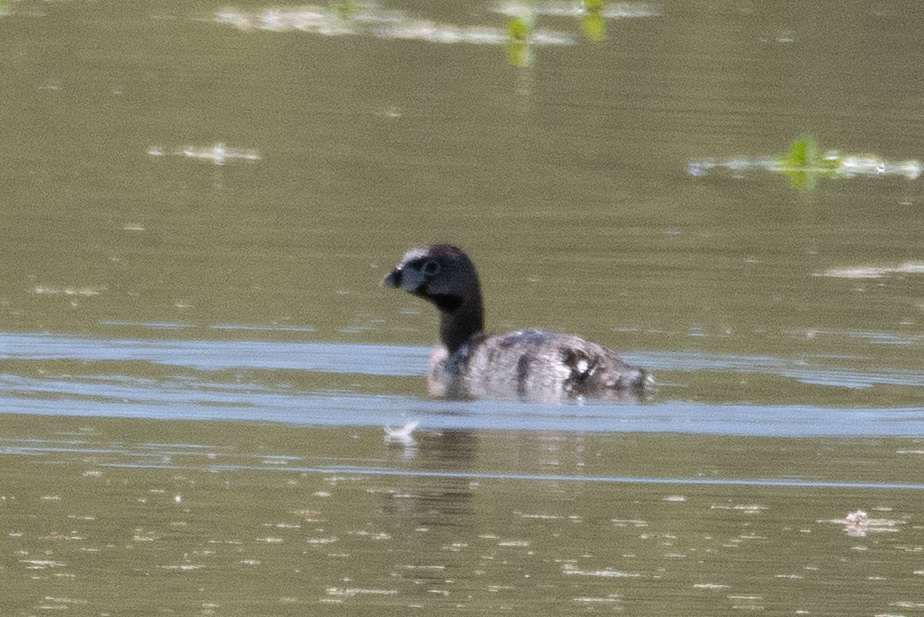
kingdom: Animalia
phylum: Chordata
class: Aves
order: Podicipediformes
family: Podicipedidae
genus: Podilymbus
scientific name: Podilymbus podiceps
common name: Pied-billed grebe
